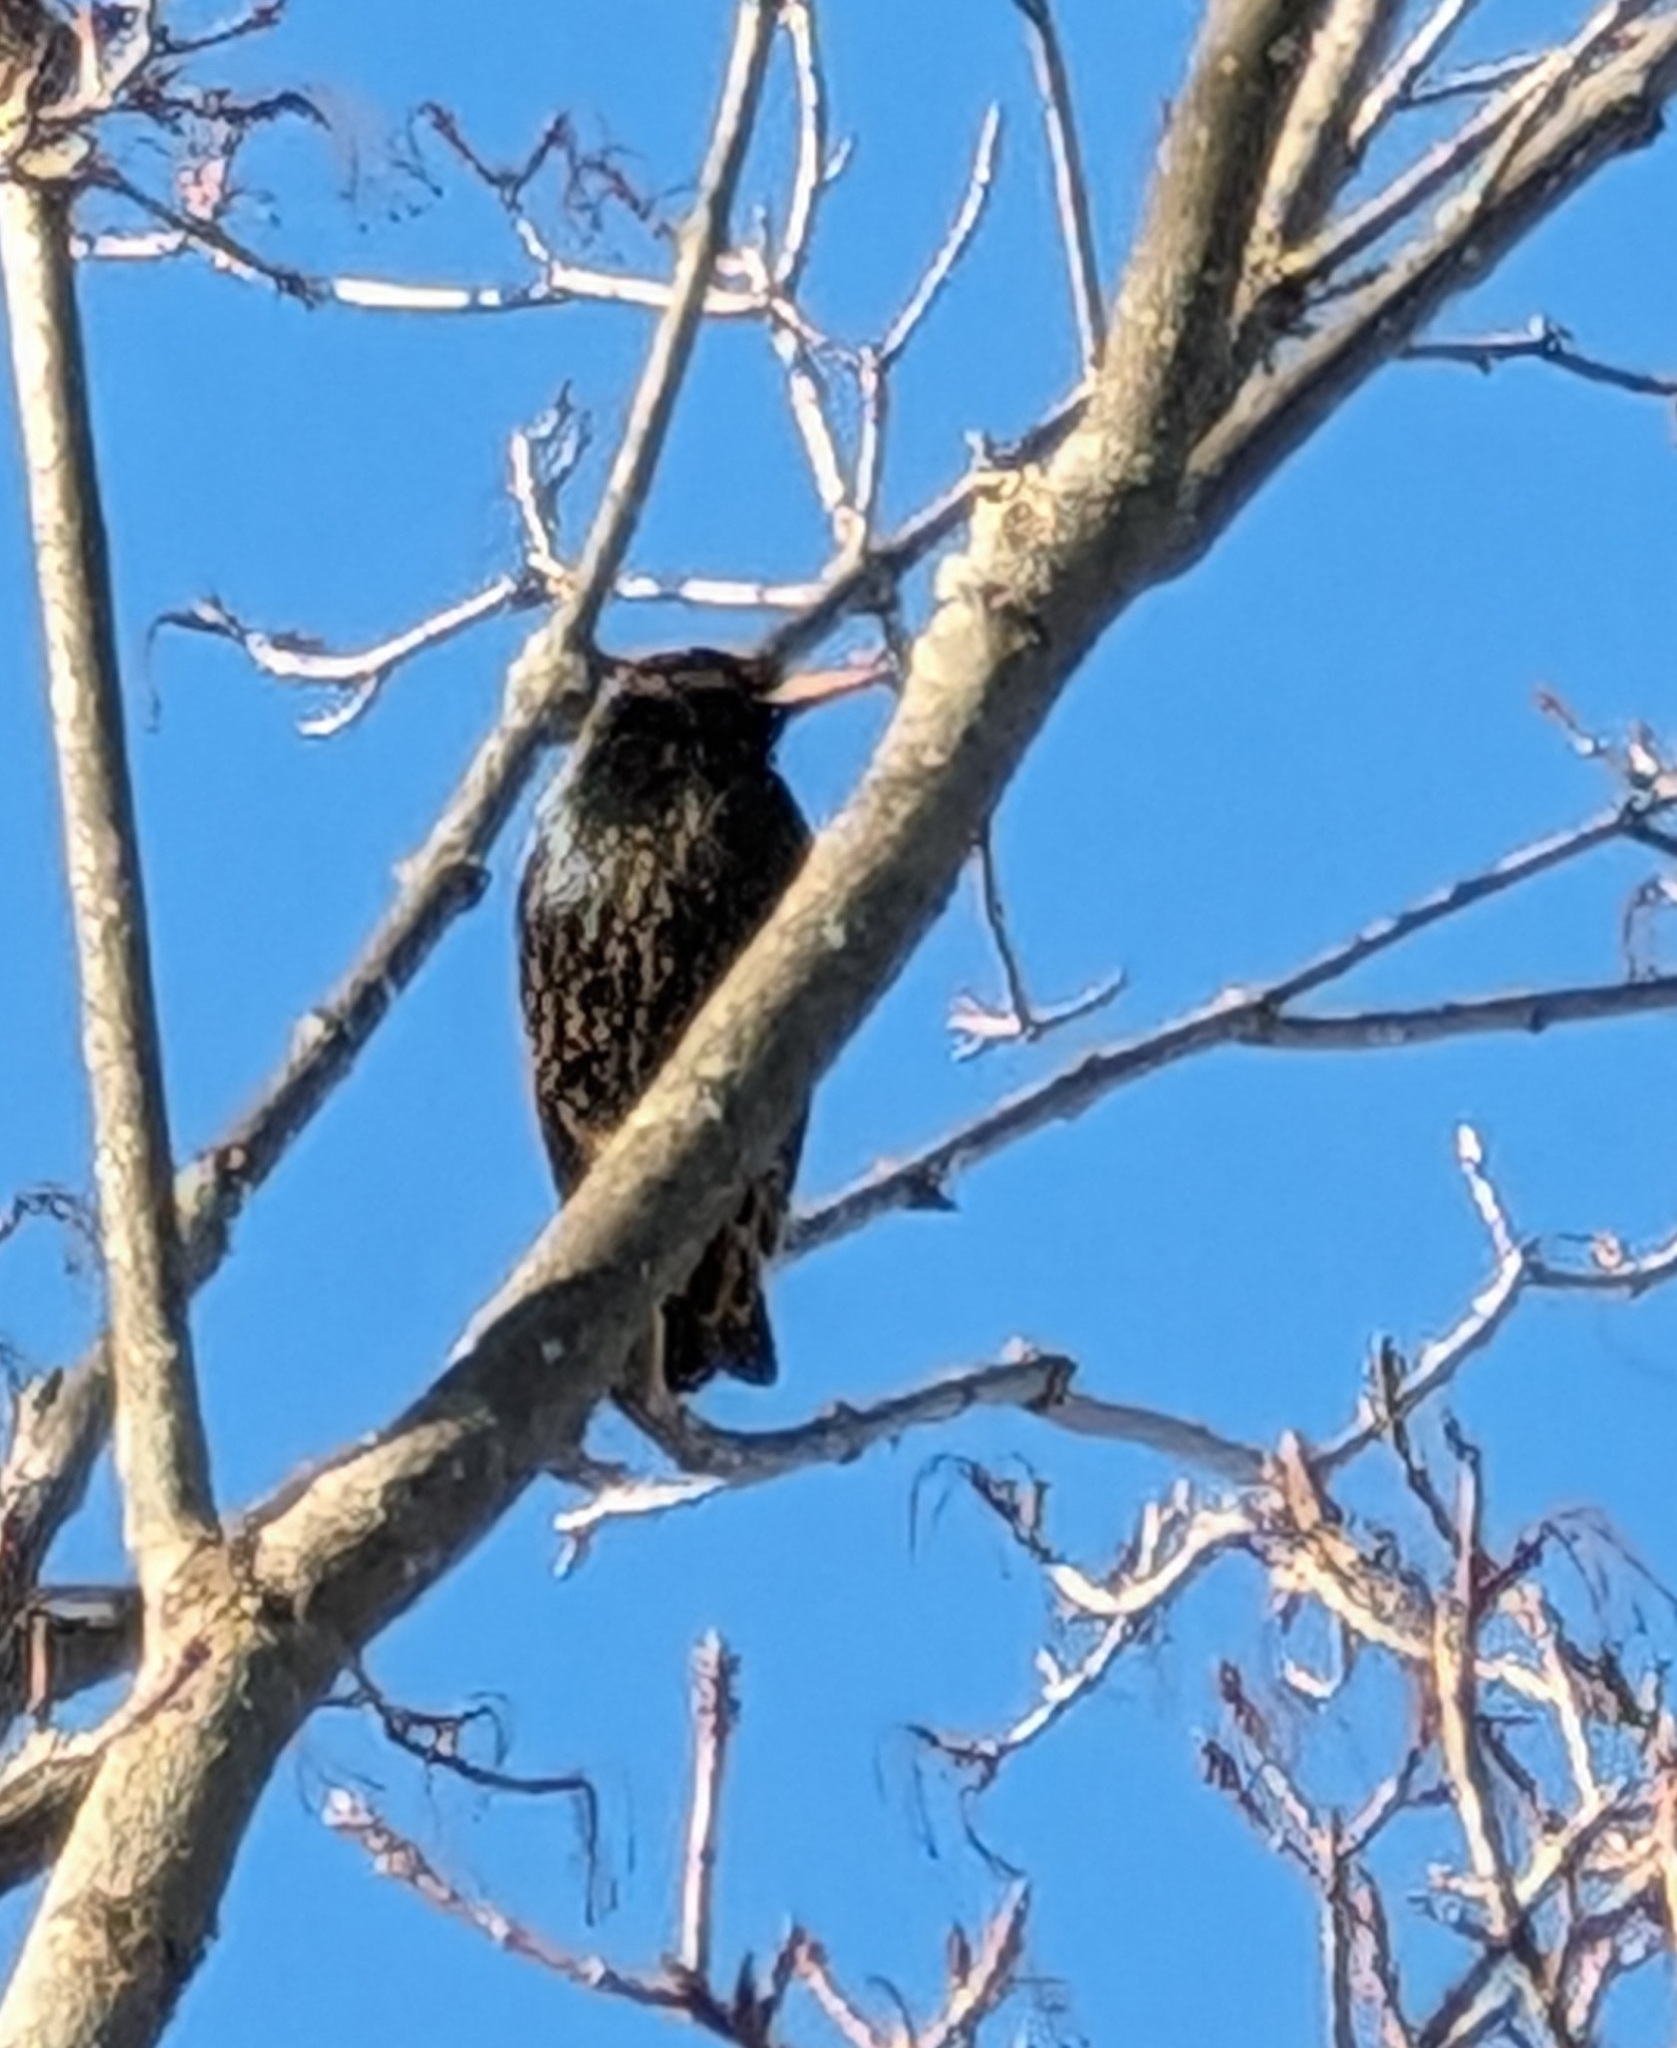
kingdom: Animalia
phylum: Chordata
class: Aves
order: Passeriformes
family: Sturnidae
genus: Sturnus
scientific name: Sturnus vulgaris
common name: Common starling
